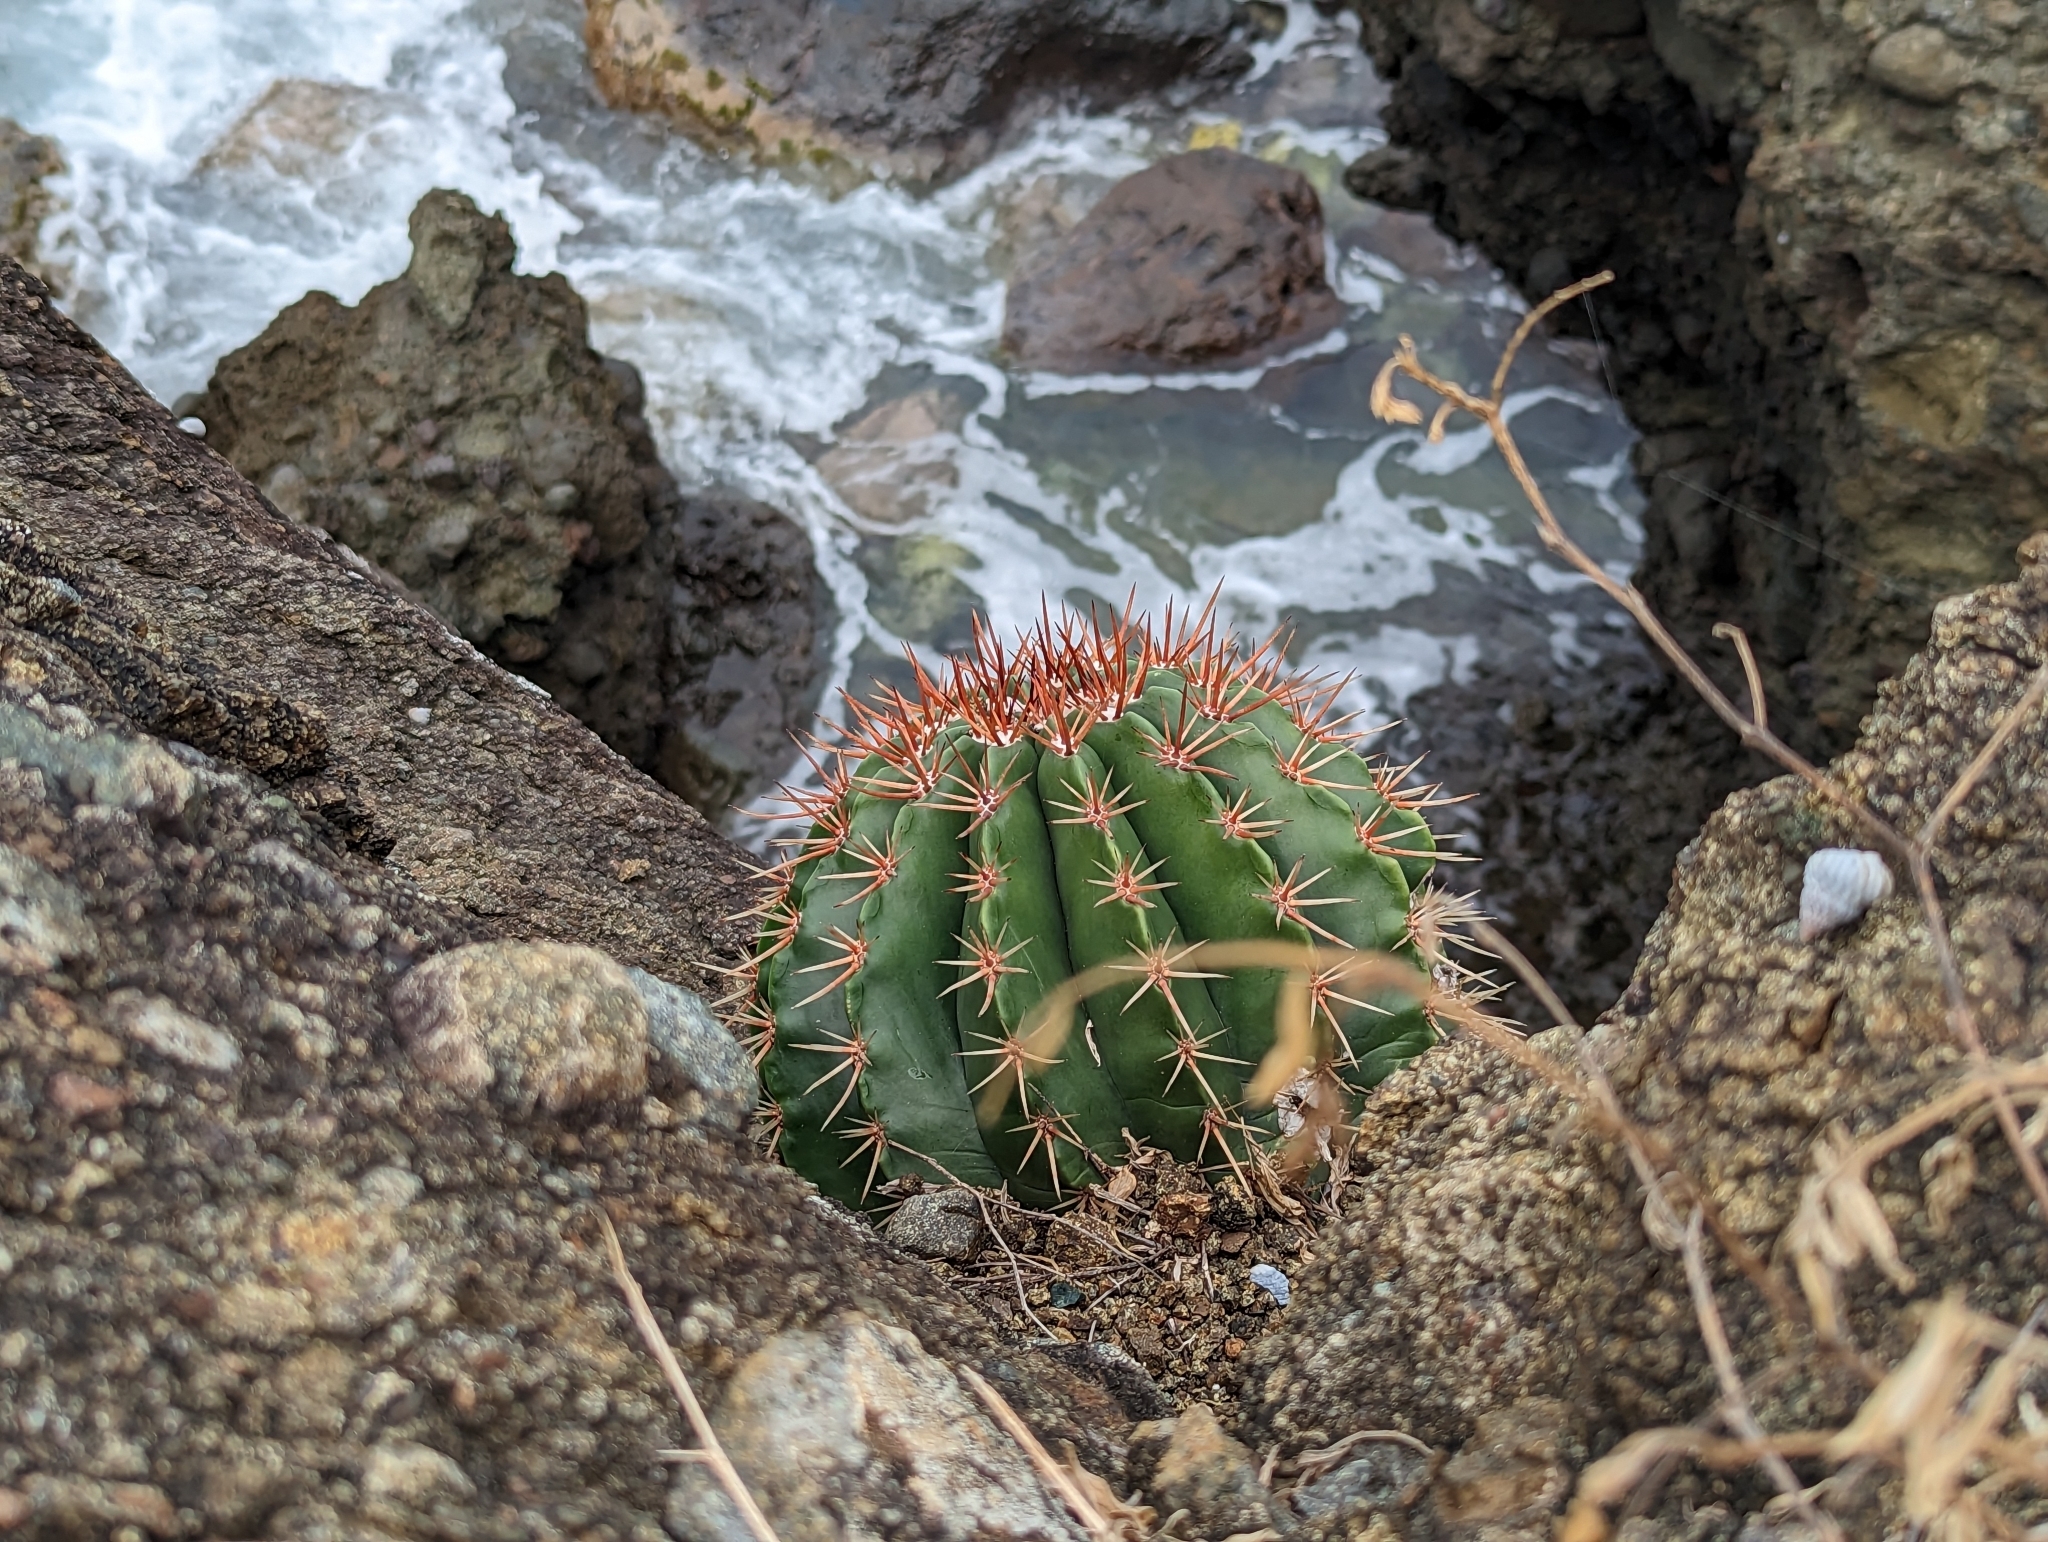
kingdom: Plantae
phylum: Tracheophyta
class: Magnoliopsida
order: Caryophyllales
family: Cactaceae
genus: Melocactus
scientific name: Melocactus intortus
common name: Barrel cactus
